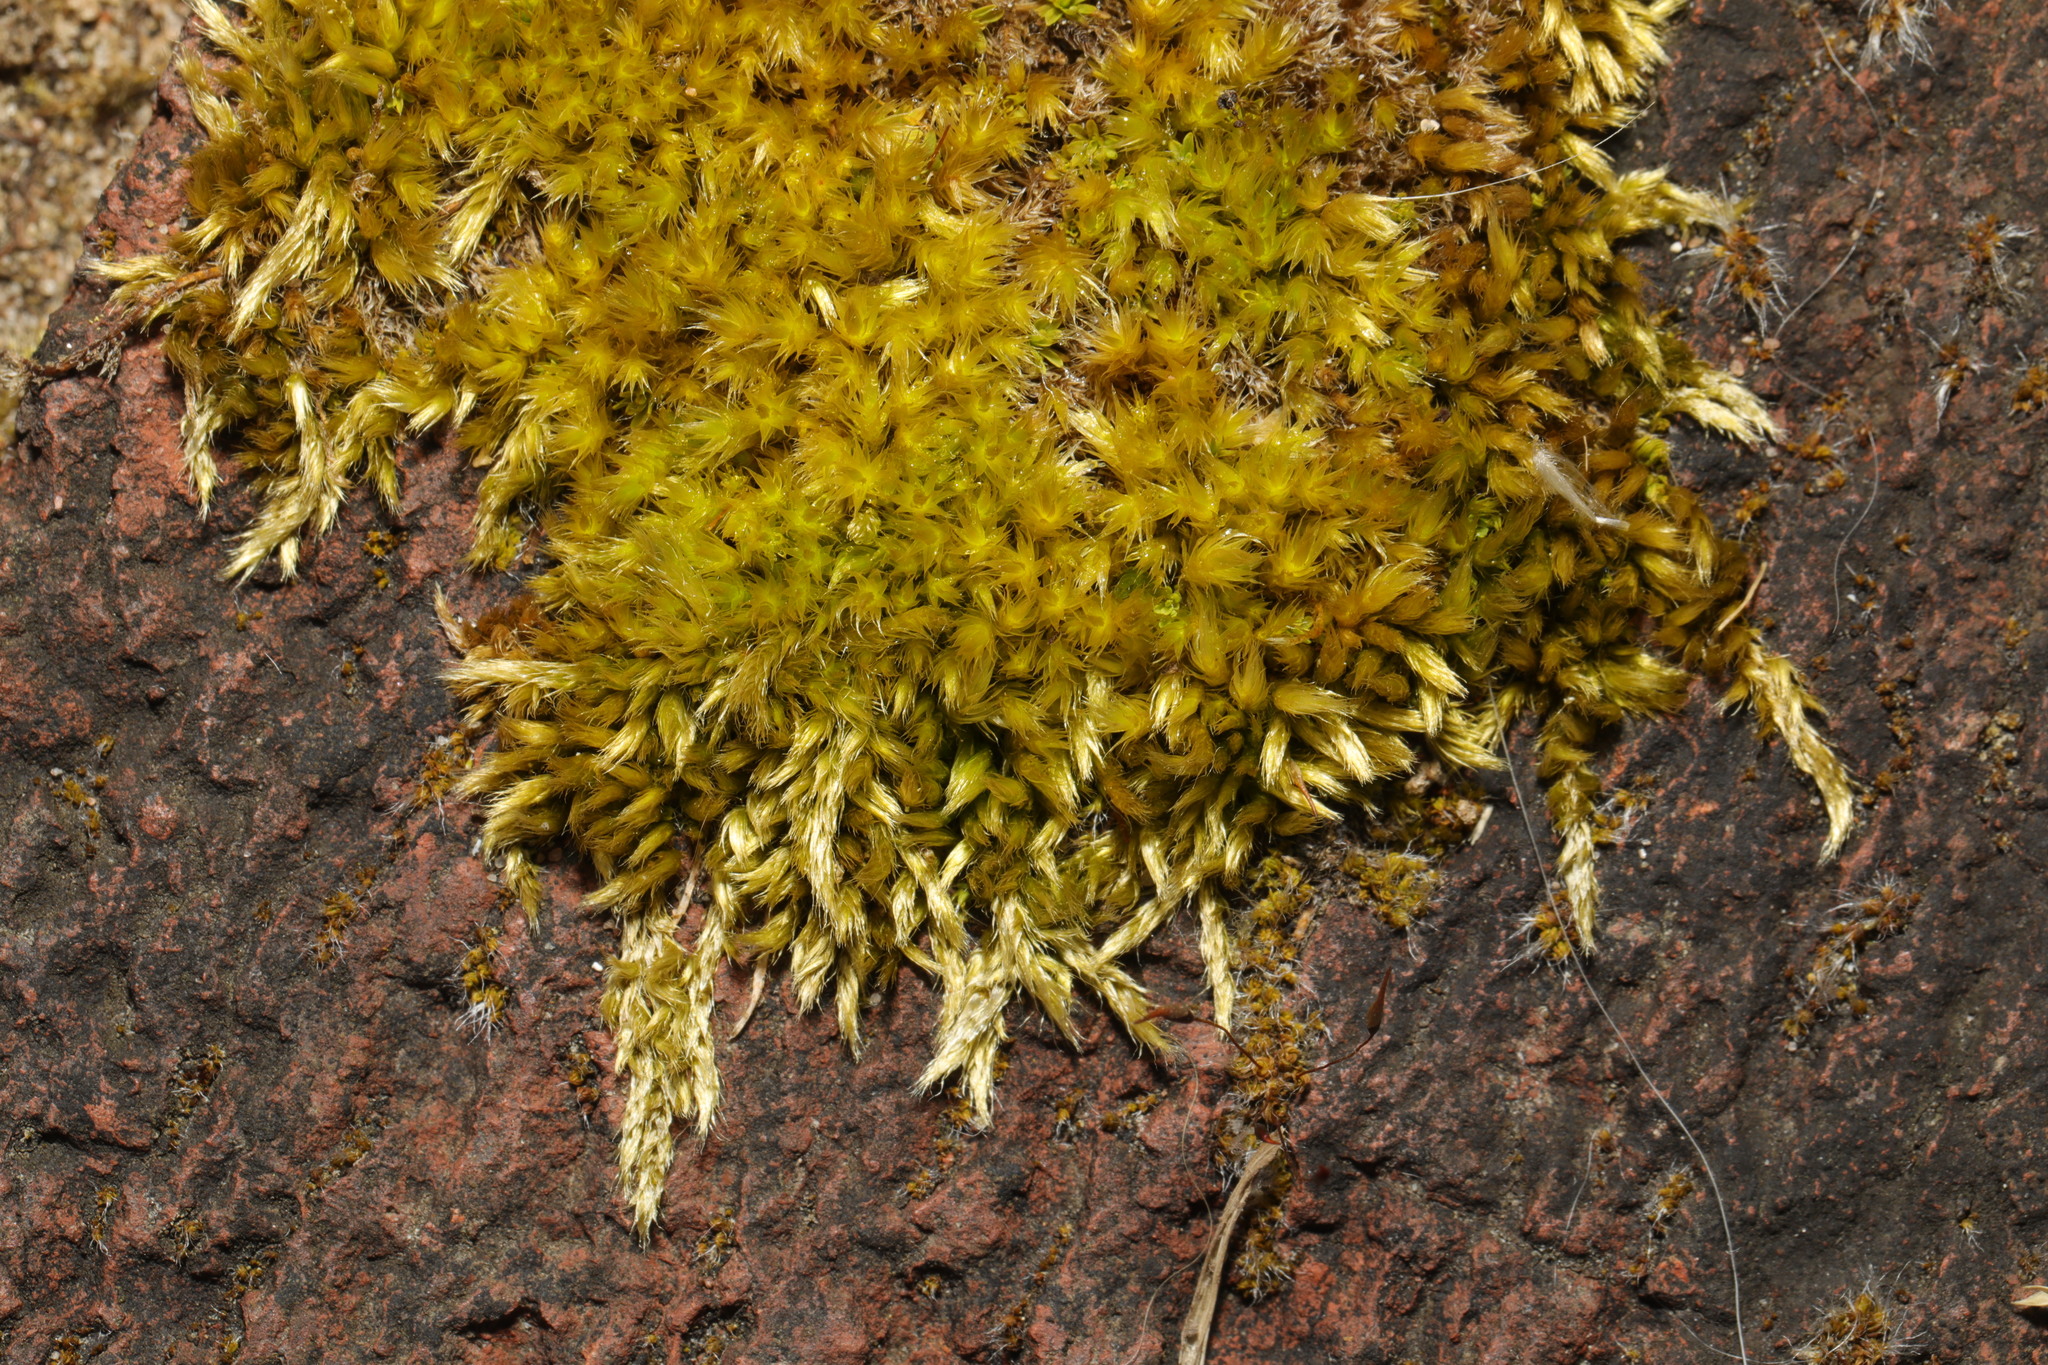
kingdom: Plantae
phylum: Bryophyta
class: Bryopsida
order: Hypnales
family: Brachytheciaceae
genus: Homalothecium
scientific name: Homalothecium sericeum
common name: Silky wall feather-moss
